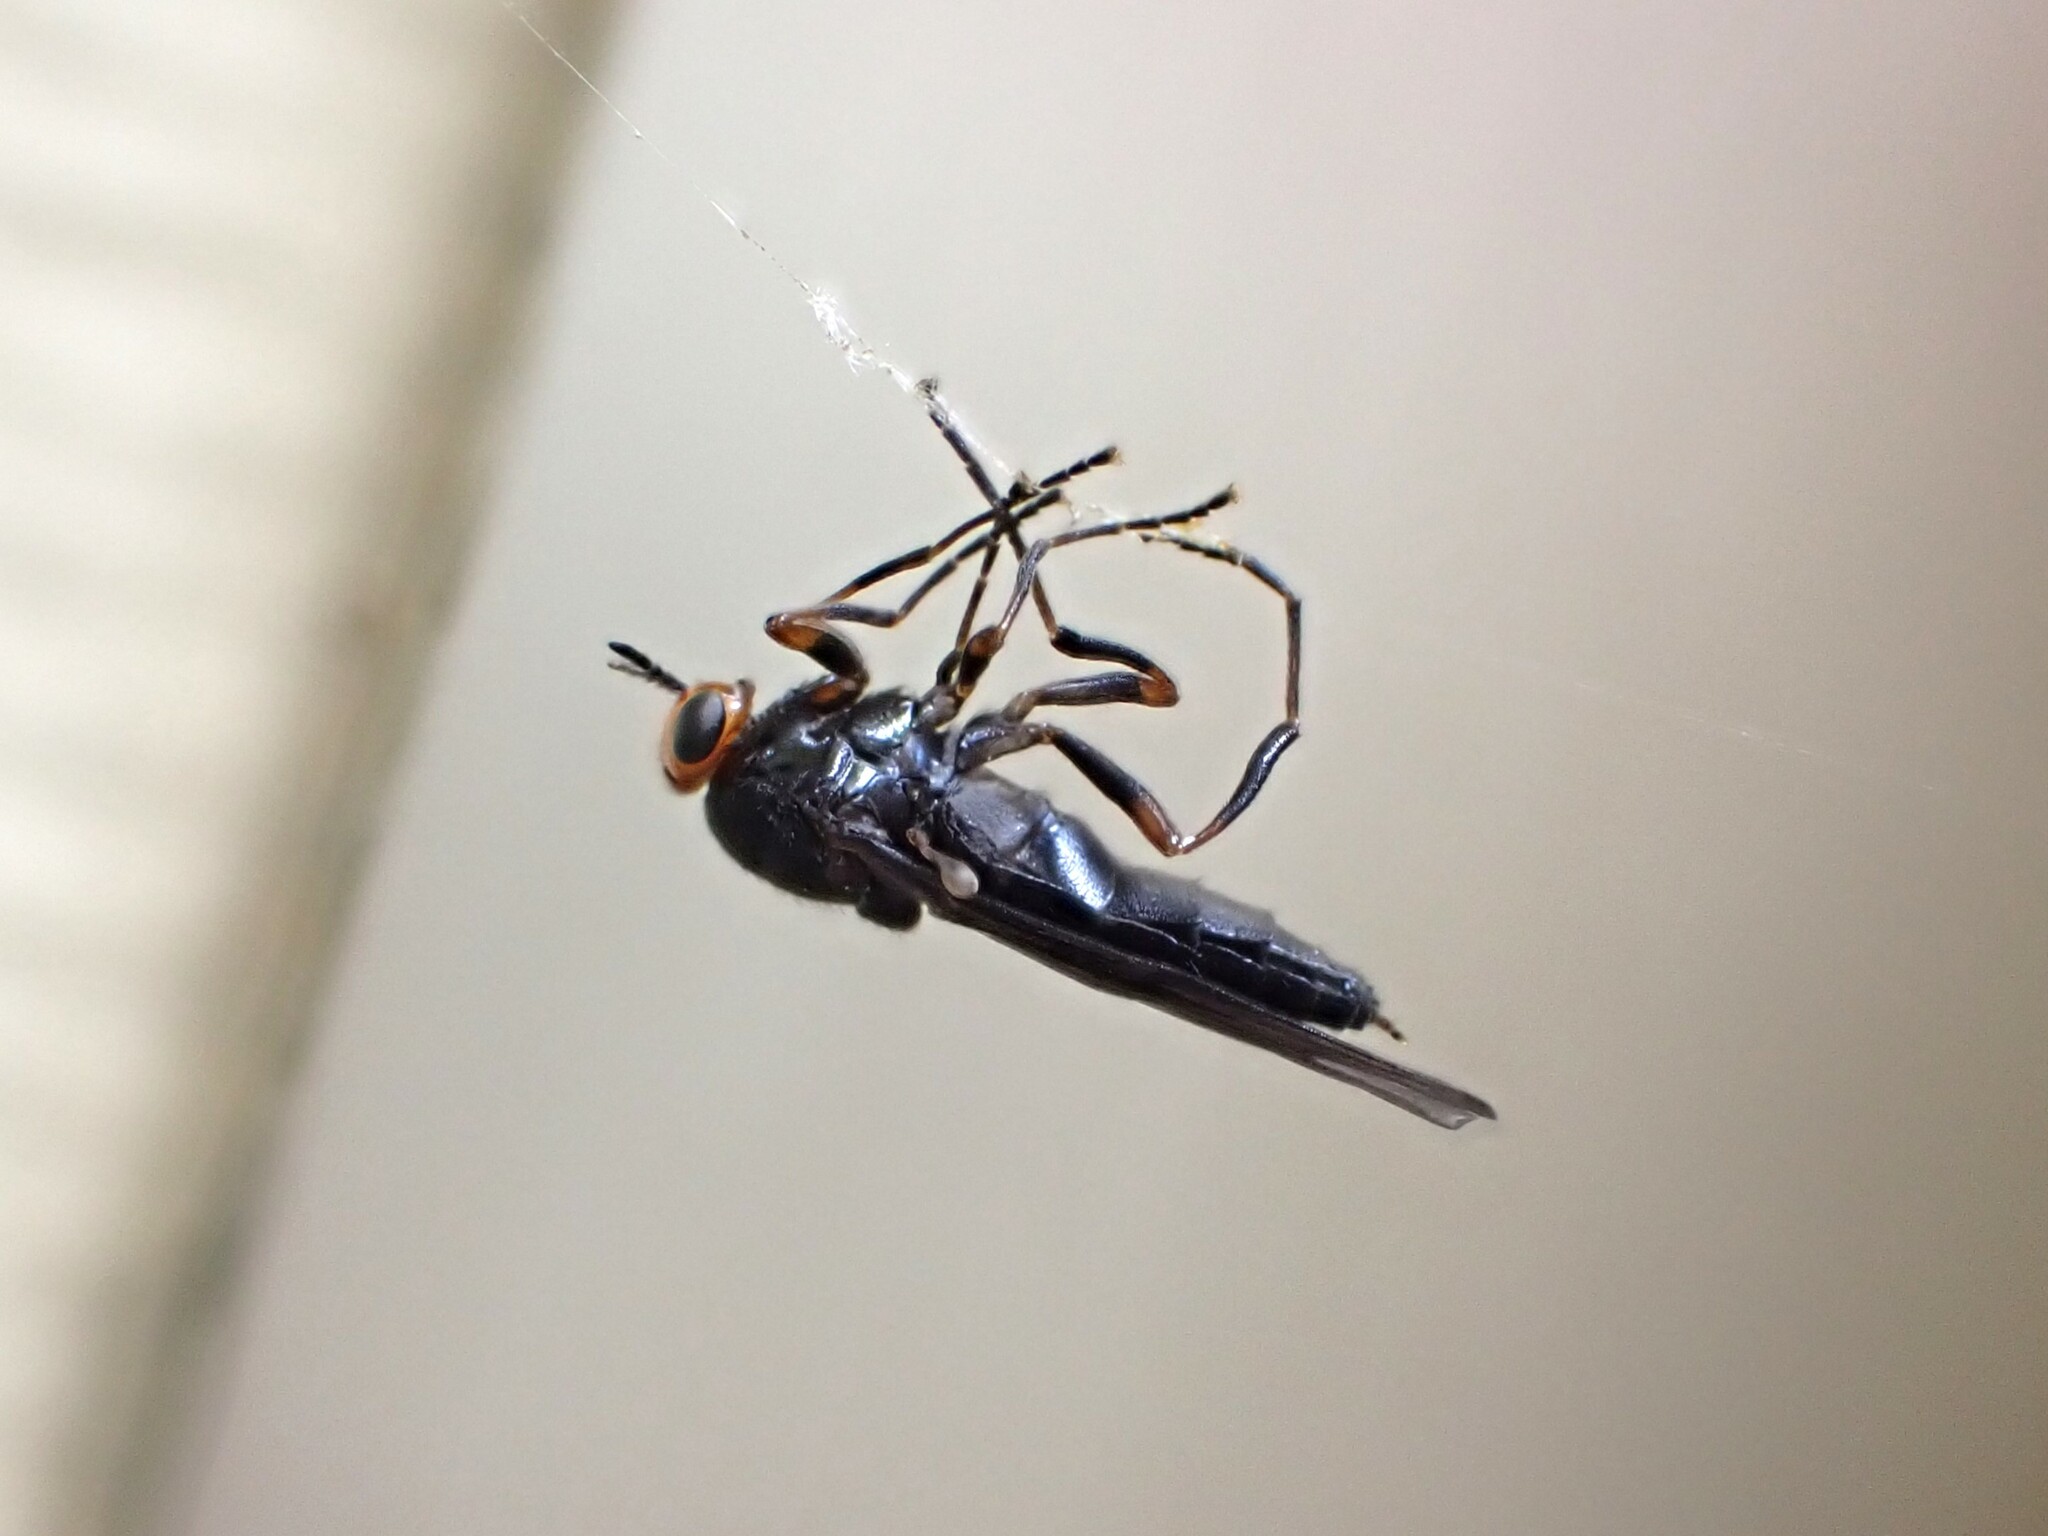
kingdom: Animalia
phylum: Arthropoda
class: Insecta
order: Diptera
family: Stratiomyidae
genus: Inopus
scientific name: Inopus rubriceps
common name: Soldier fly
